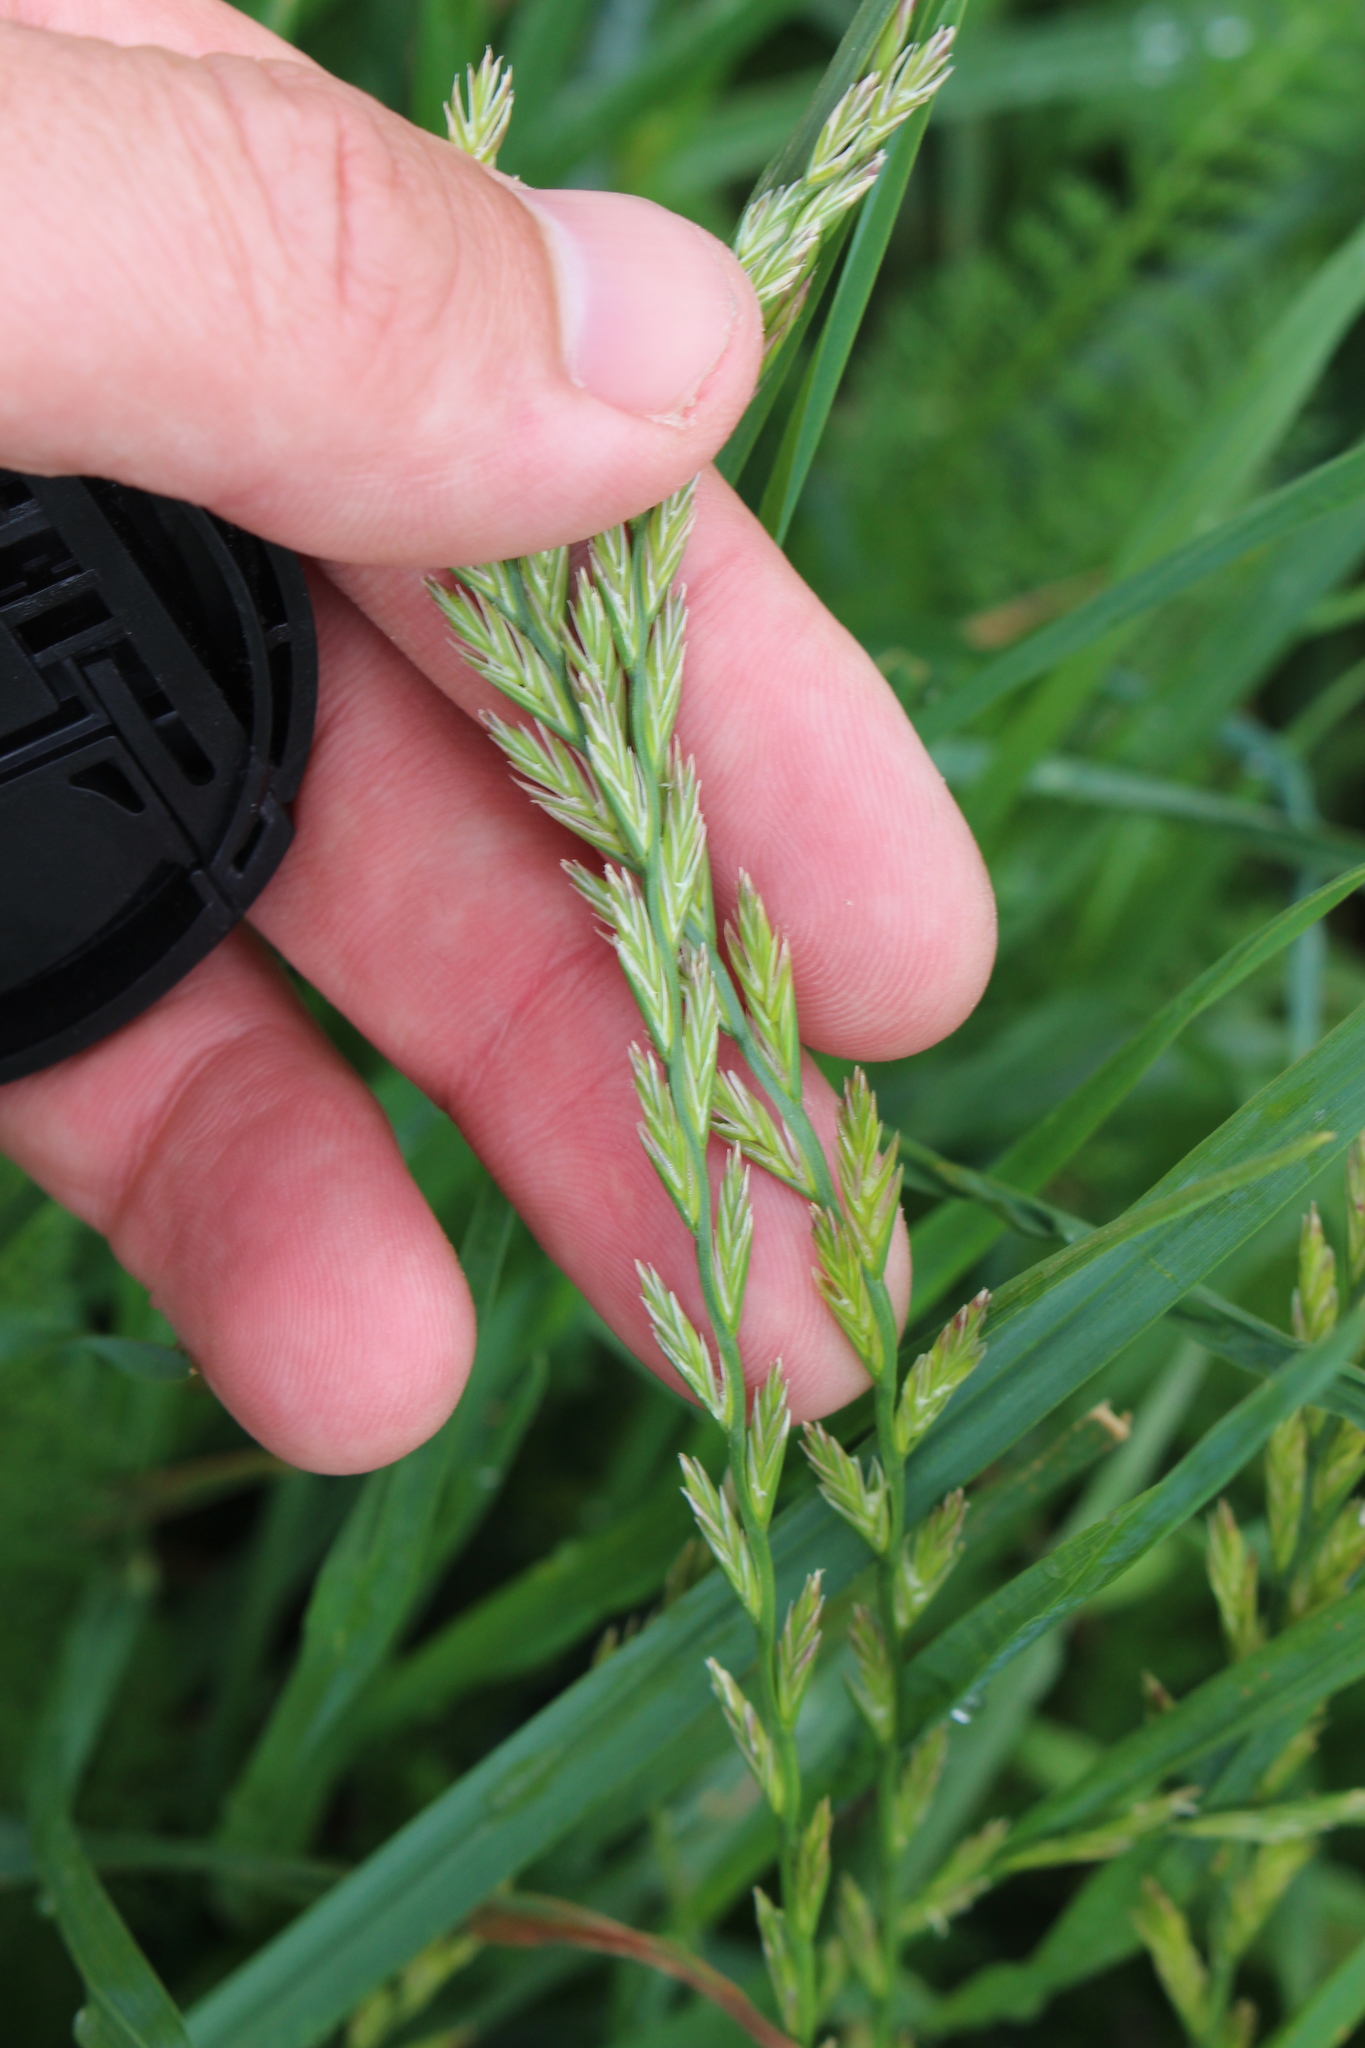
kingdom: Plantae
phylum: Tracheophyta
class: Liliopsida
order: Poales
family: Poaceae
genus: Lolium
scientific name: Lolium perenne
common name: Perennial ryegrass
